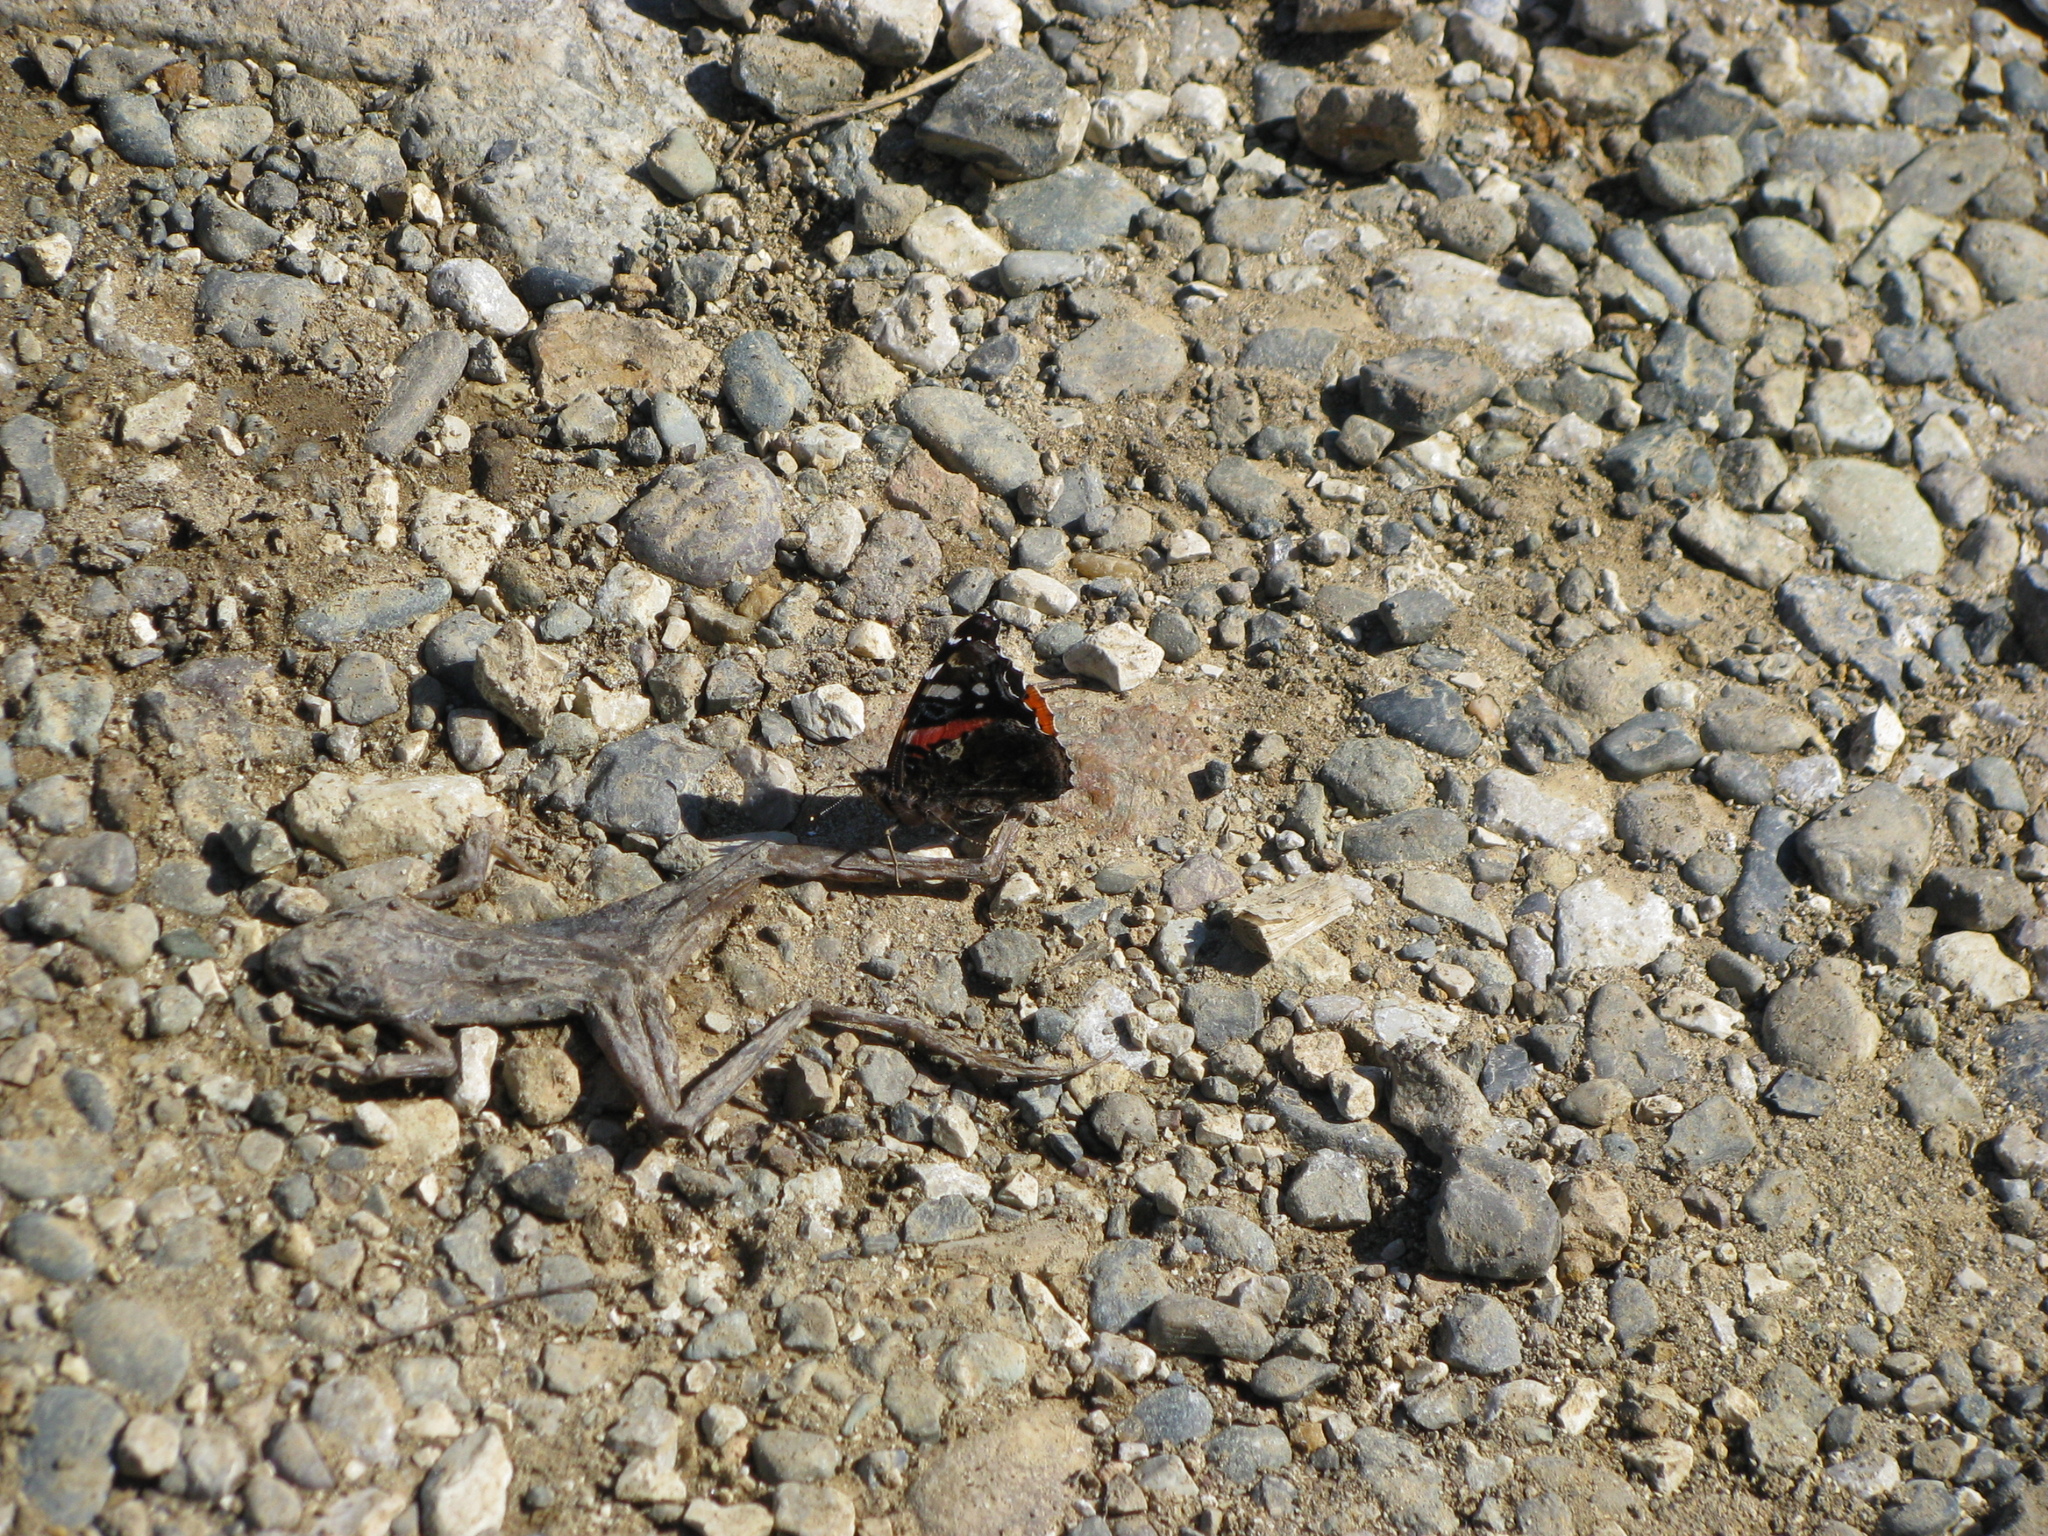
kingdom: Animalia
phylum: Arthropoda
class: Insecta
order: Lepidoptera
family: Nymphalidae
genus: Vanessa
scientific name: Vanessa atalanta
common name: Red admiral
